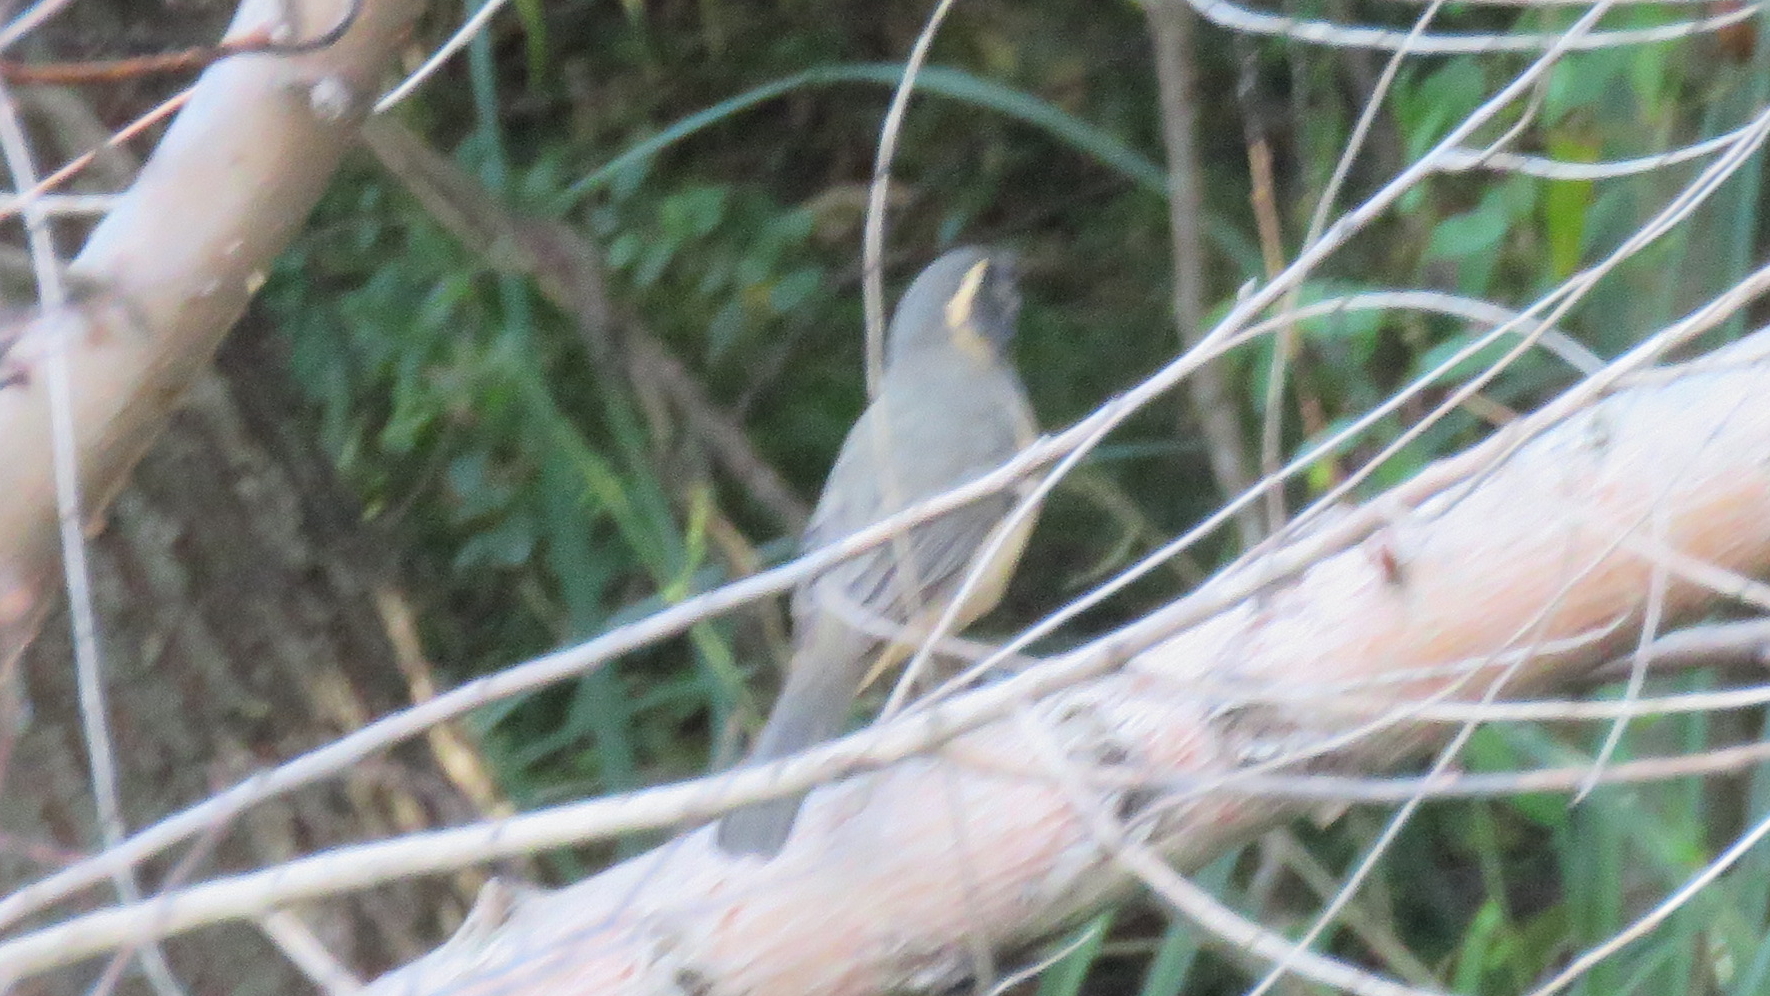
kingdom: Animalia
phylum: Chordata
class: Aves
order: Passeriformes
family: Thraupidae
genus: Saltator
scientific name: Saltator aurantiirostris
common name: Golden-billed saltator
